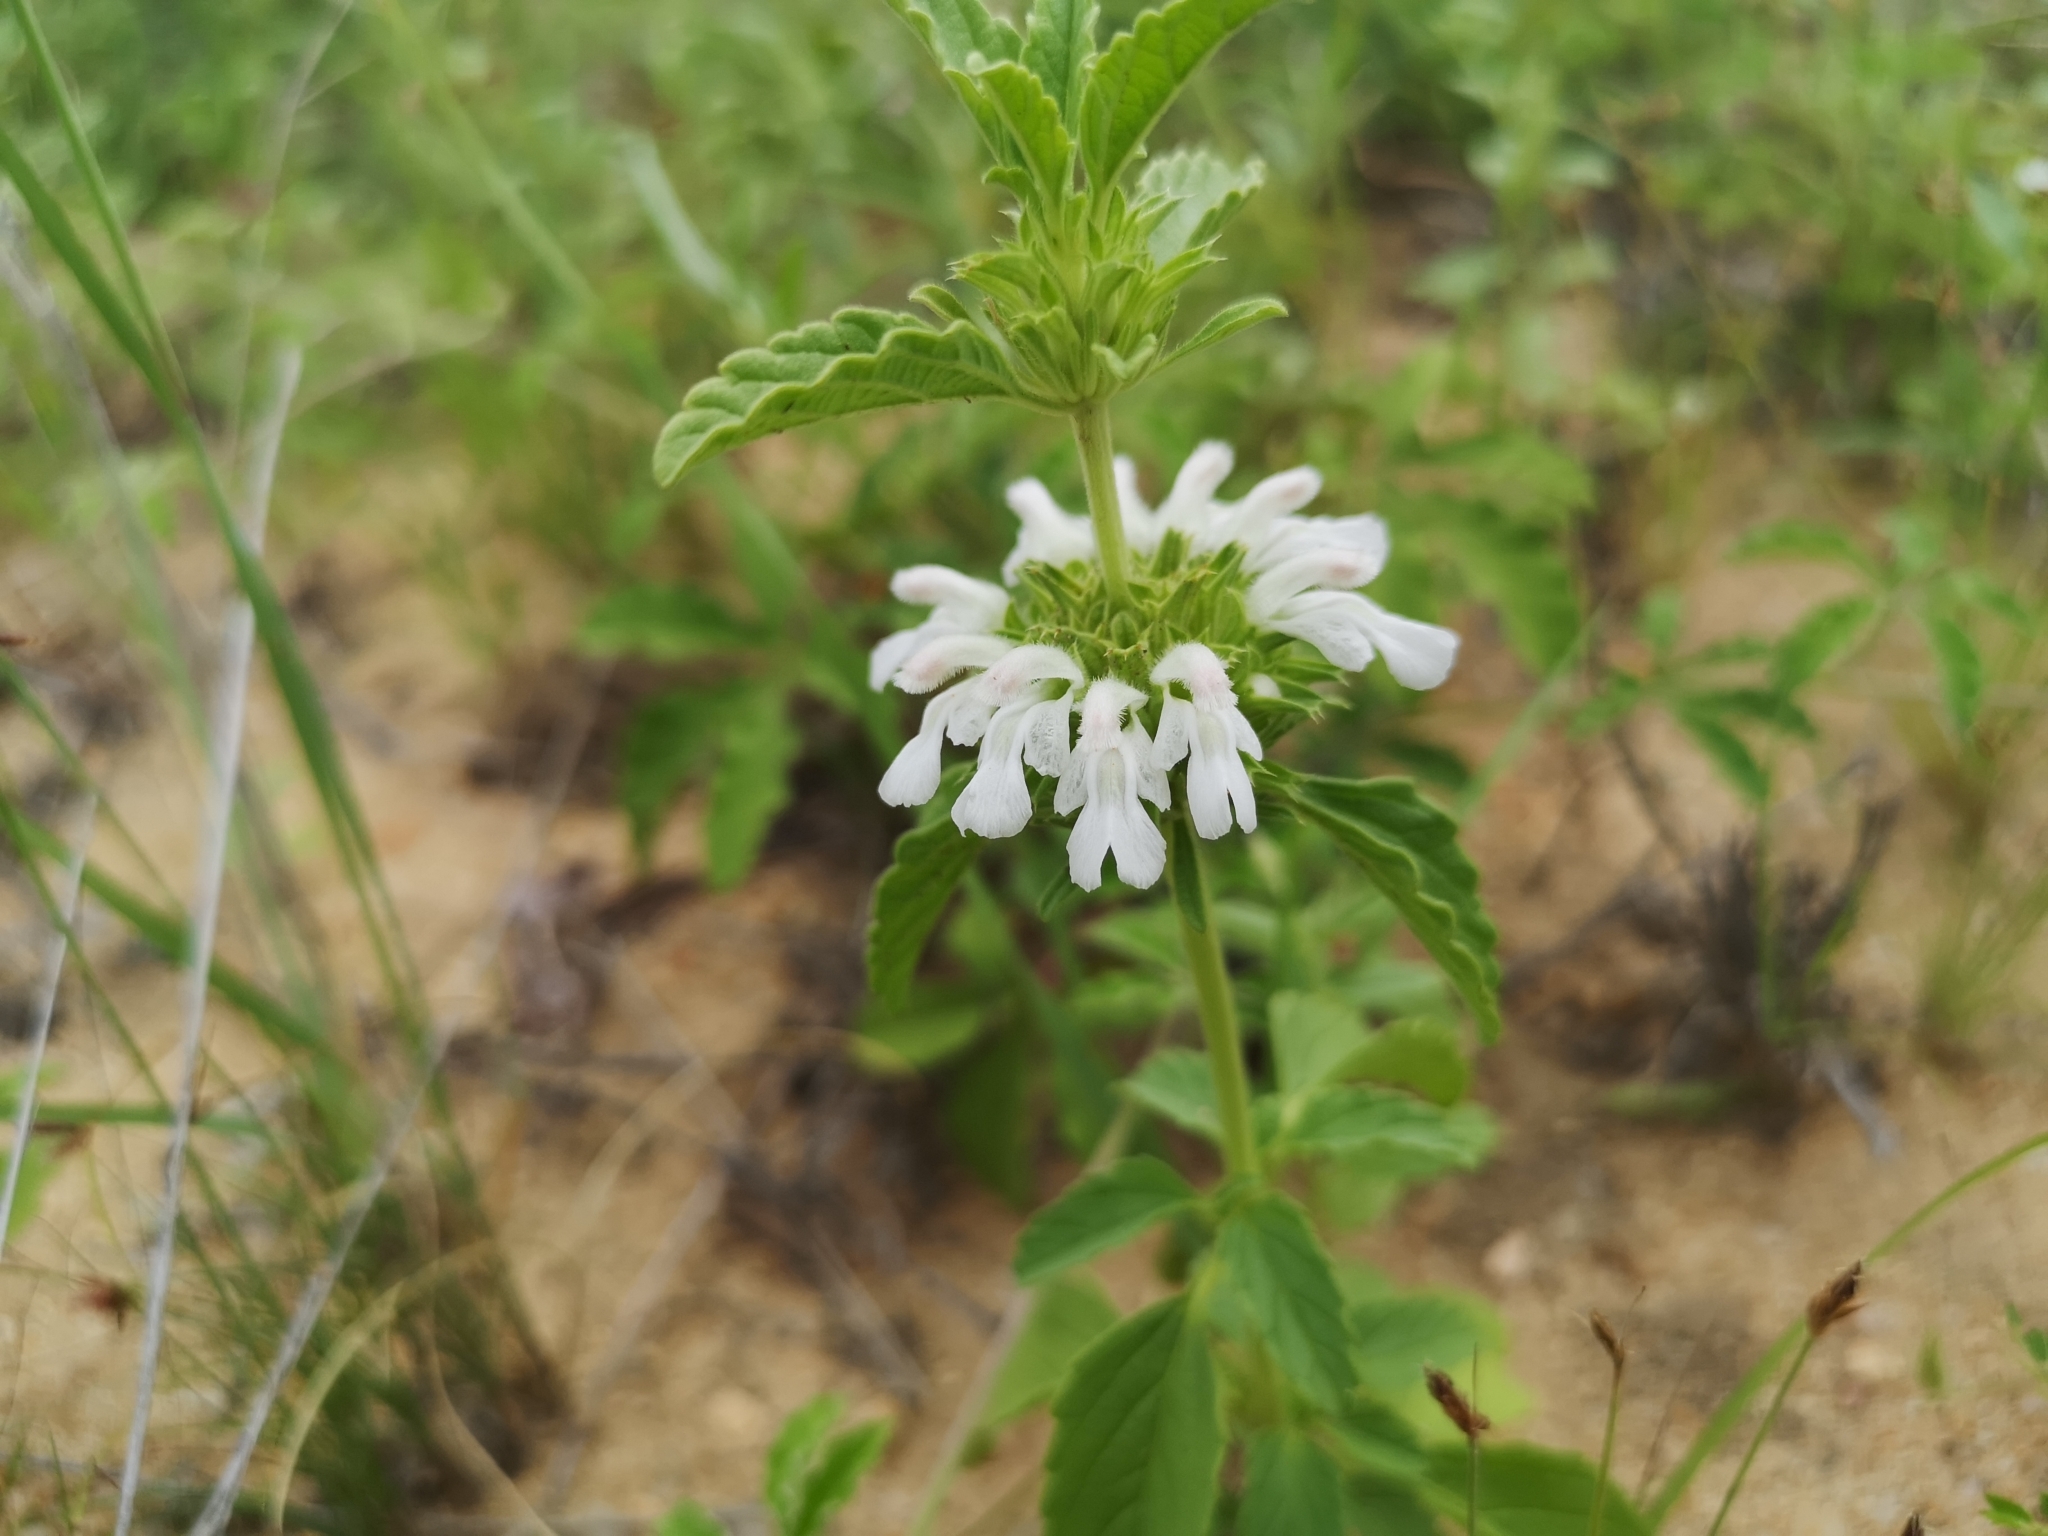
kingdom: Plantae
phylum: Tracheophyta
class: Magnoliopsida
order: Lamiales
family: Lamiaceae
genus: Leucas
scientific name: Leucas sexdentata
